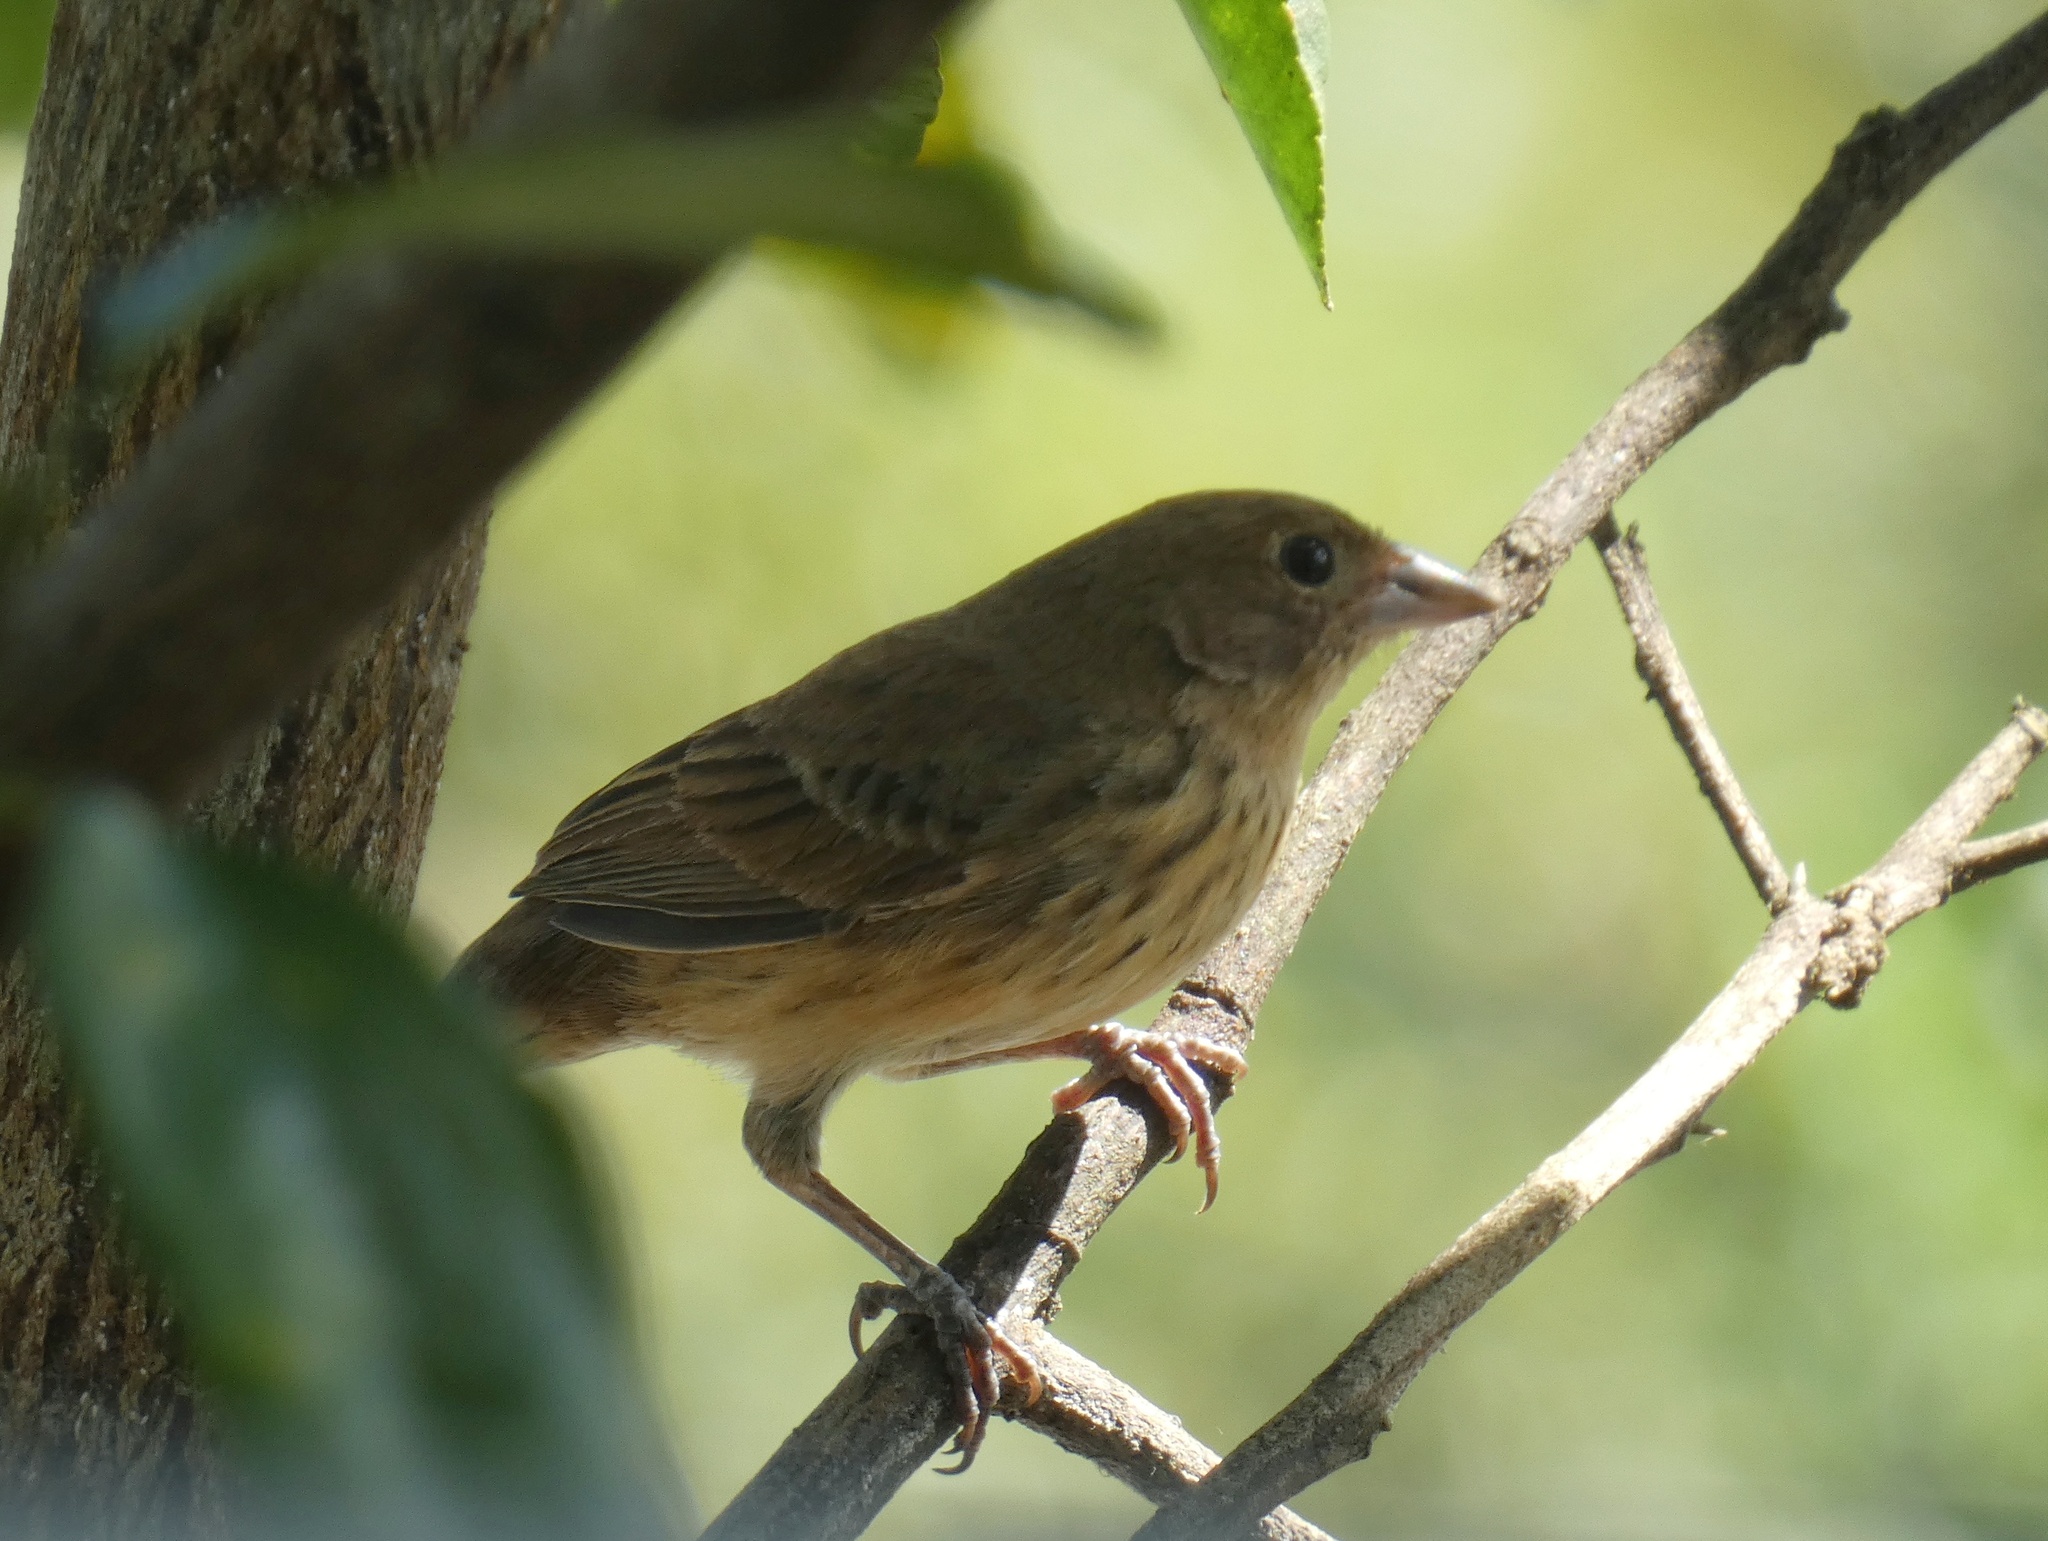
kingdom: Animalia
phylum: Chordata
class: Aves
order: Passeriformes
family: Thraupidae
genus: Volatinia
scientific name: Volatinia jacarina
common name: Blue-black grassquit
